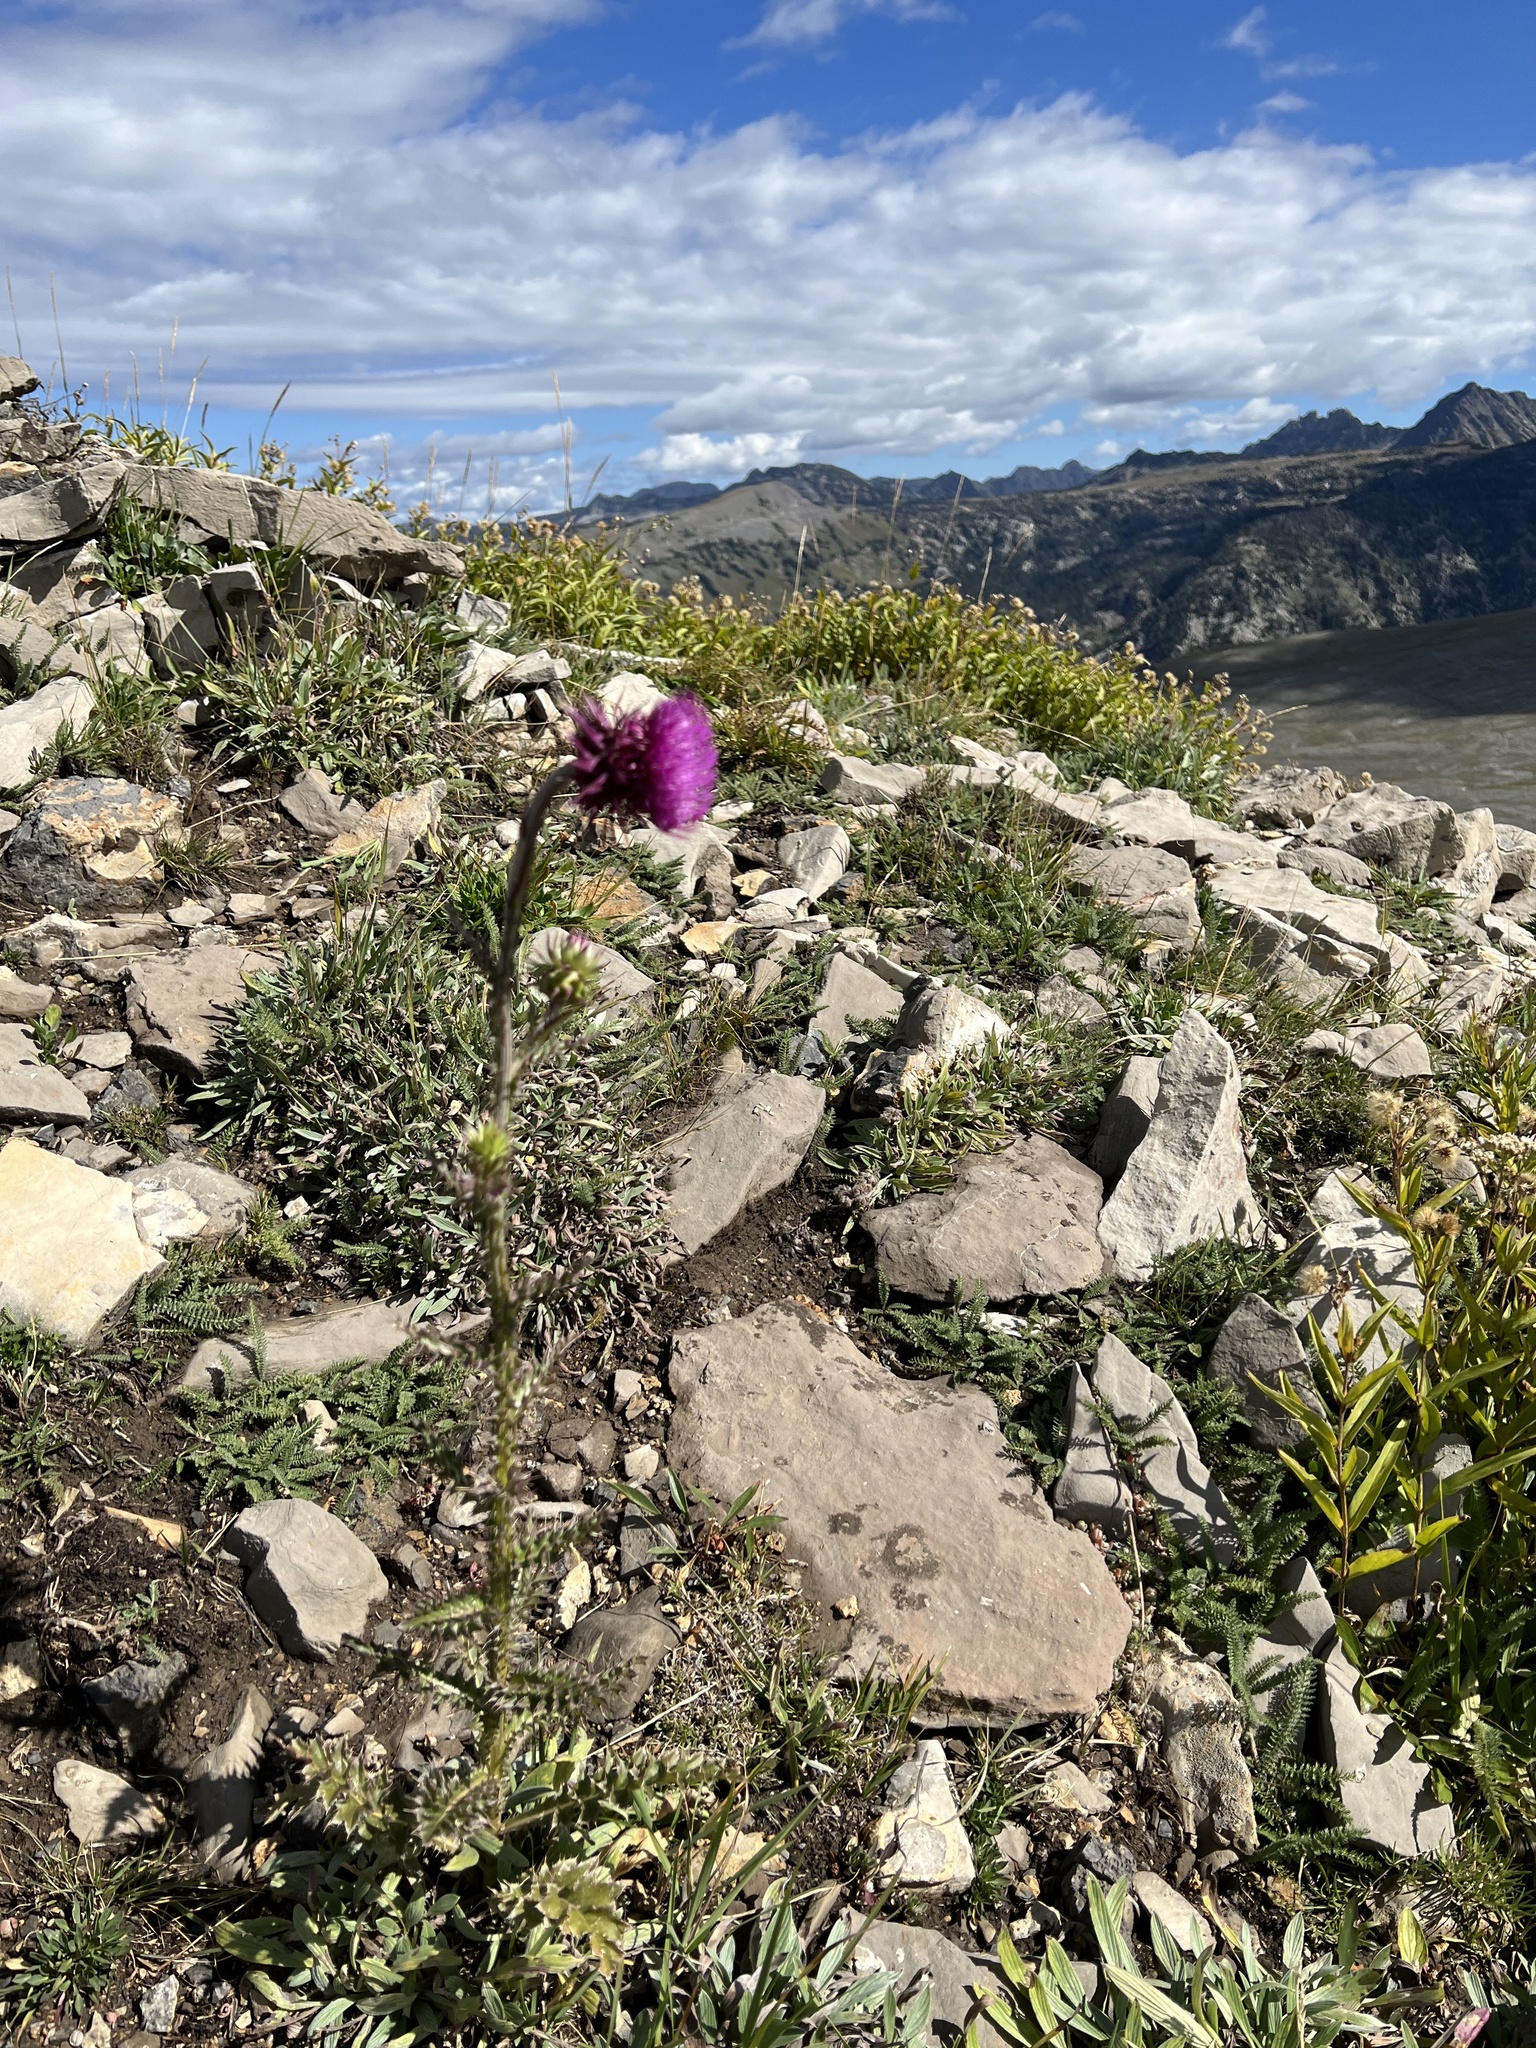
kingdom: Plantae
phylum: Tracheophyta
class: Magnoliopsida
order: Asterales
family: Asteraceae
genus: Carduus
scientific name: Carduus nutans
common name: Musk thistle
